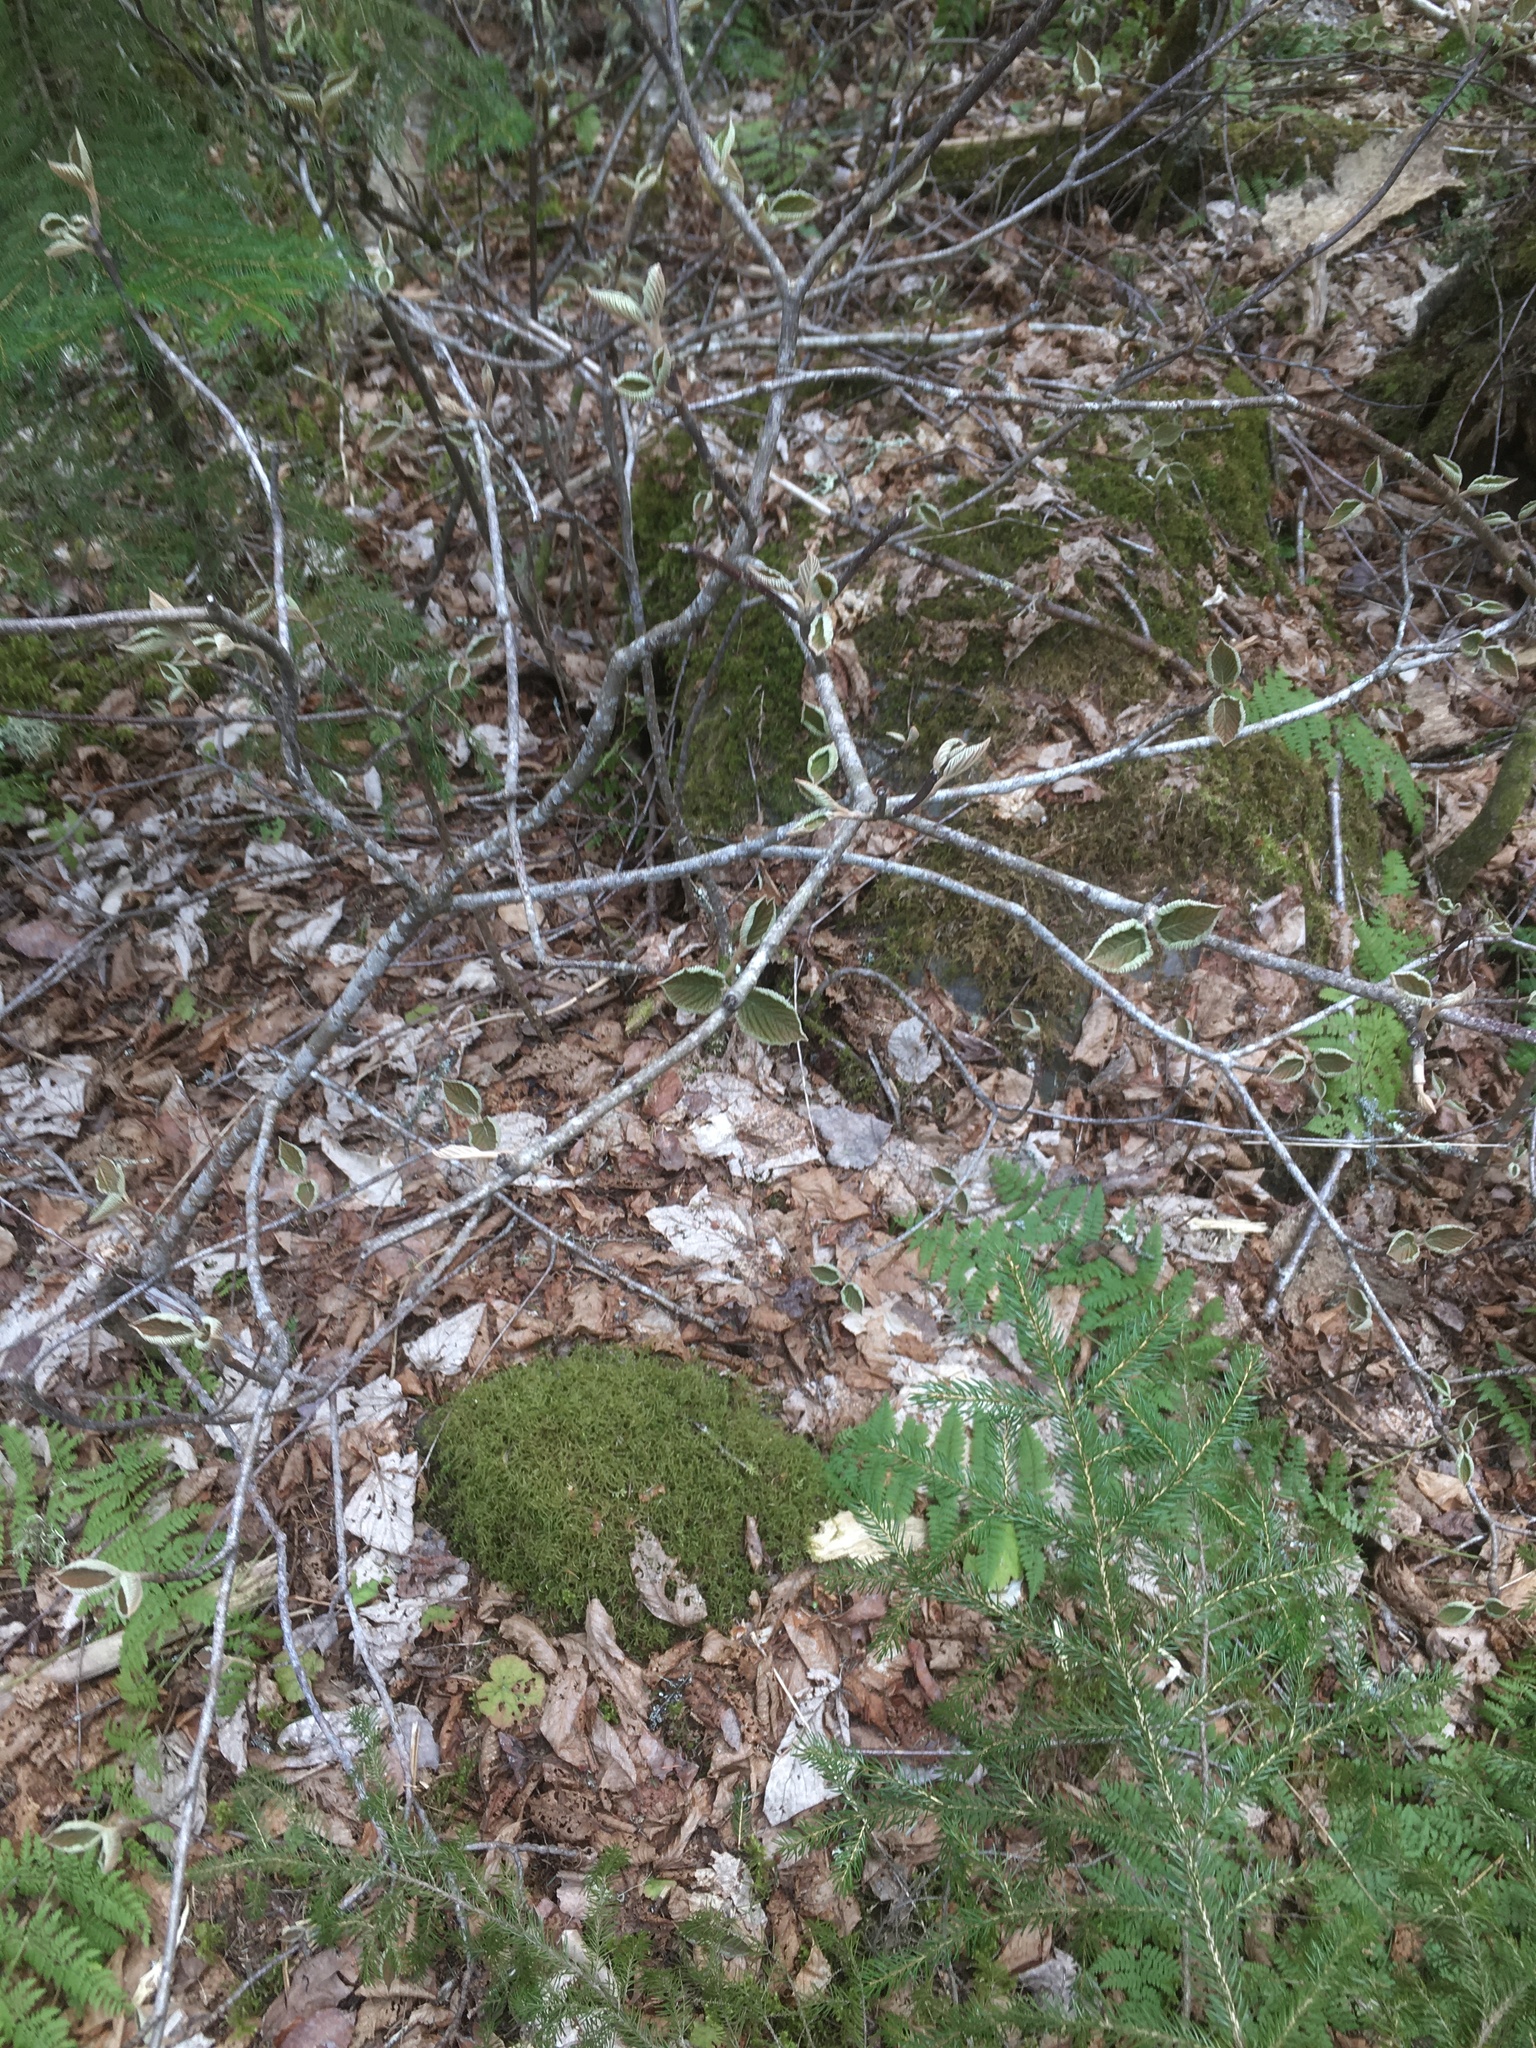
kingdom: Plantae
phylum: Tracheophyta
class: Magnoliopsida
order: Dipsacales
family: Viburnaceae
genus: Viburnum
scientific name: Viburnum lantanoides
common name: Hobblebush
